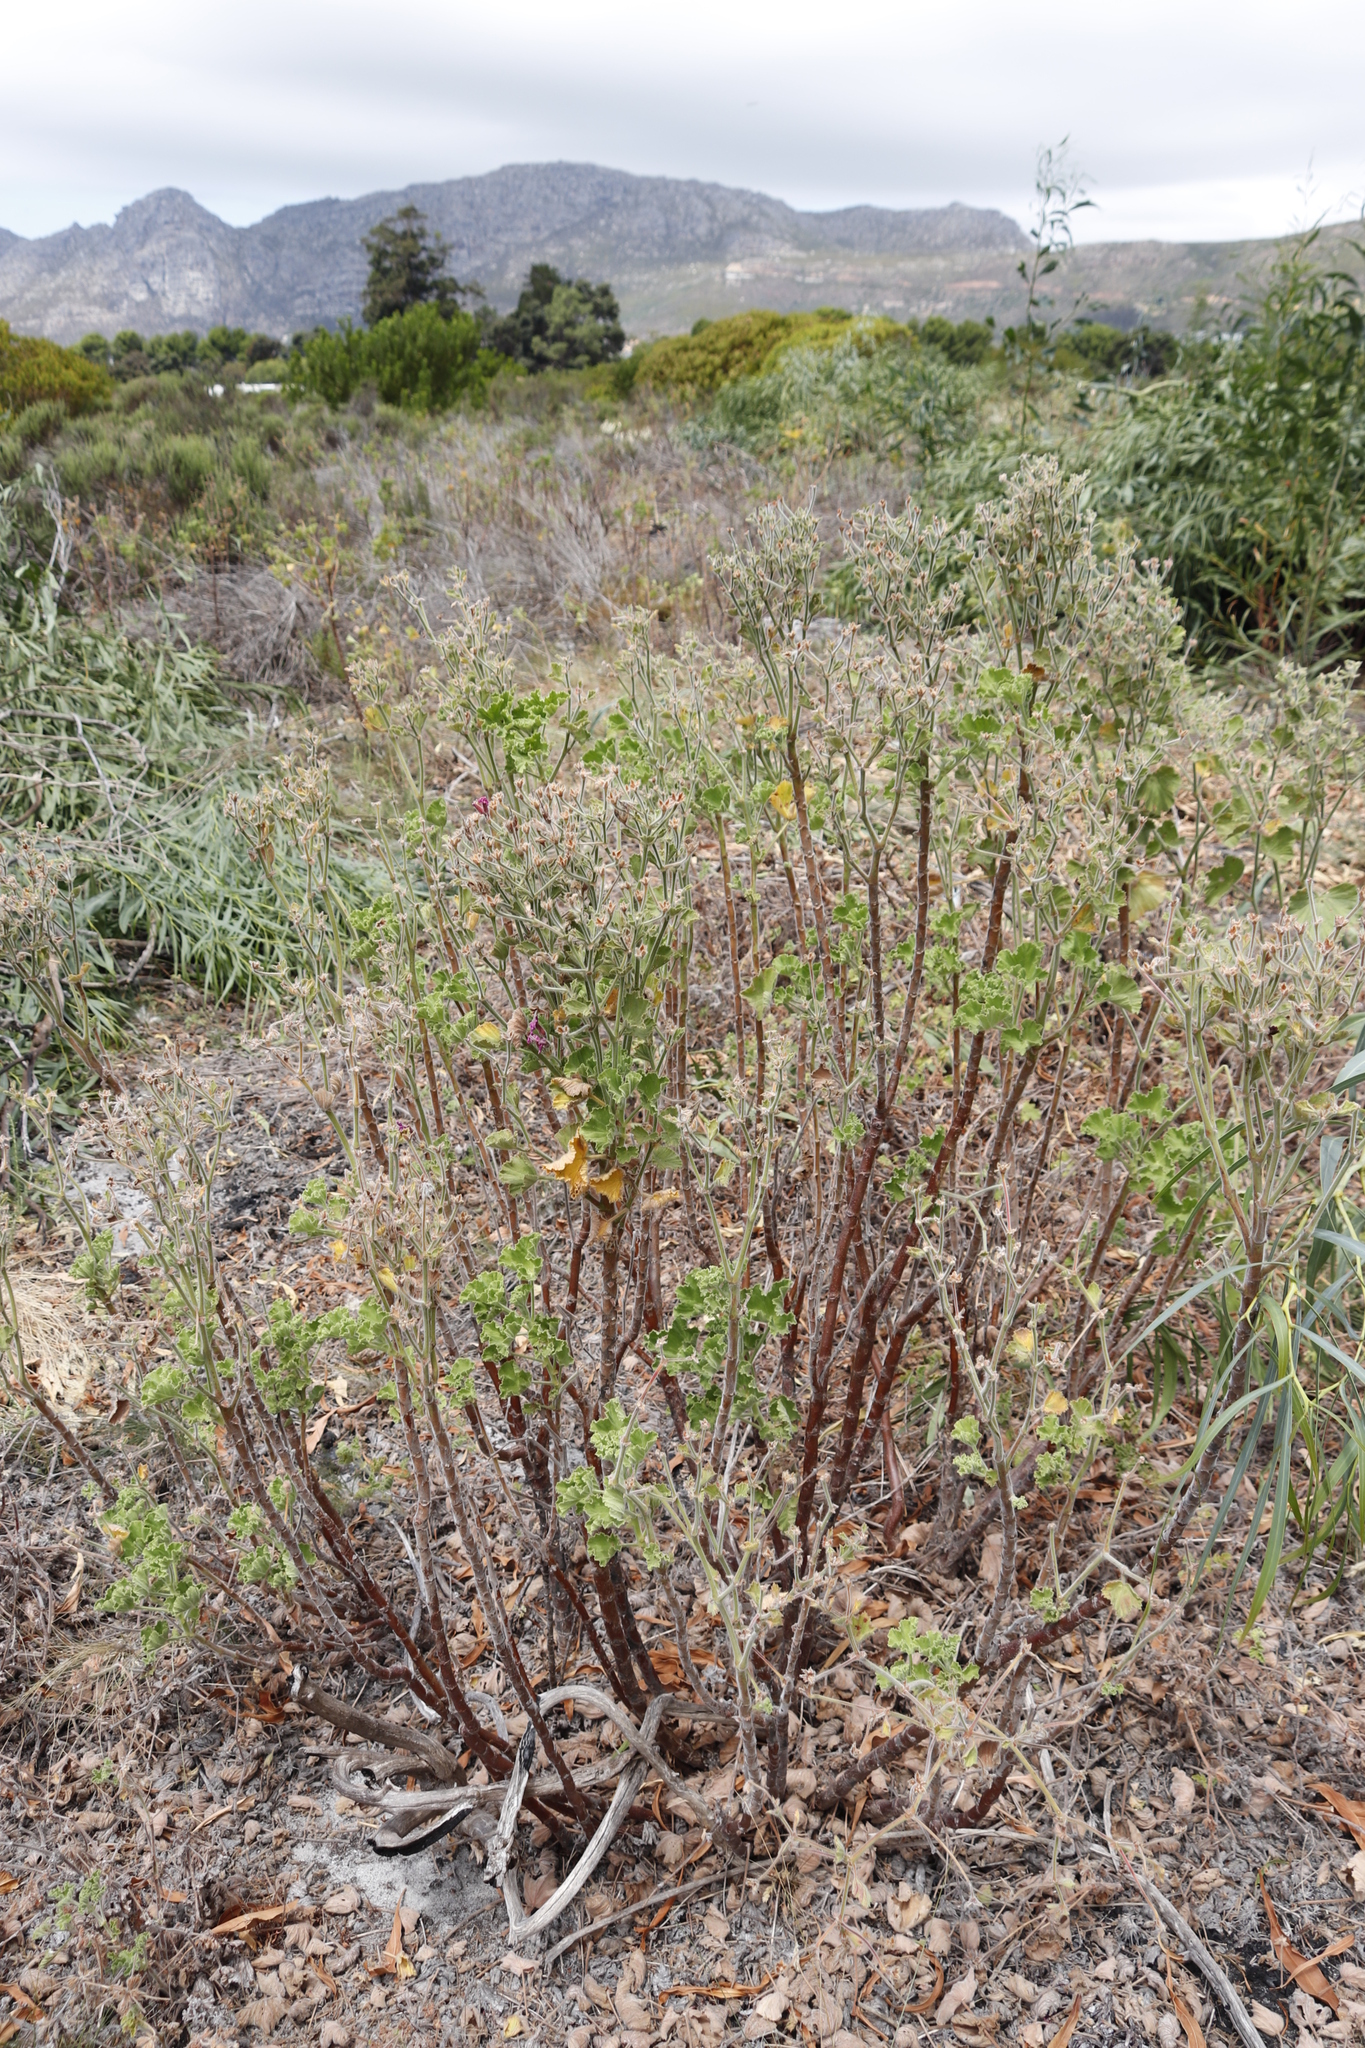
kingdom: Plantae
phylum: Tracheophyta
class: Magnoliopsida
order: Geraniales
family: Geraniaceae
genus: Pelargonium
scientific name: Pelargonium cucullatum
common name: Tree pelargonium
